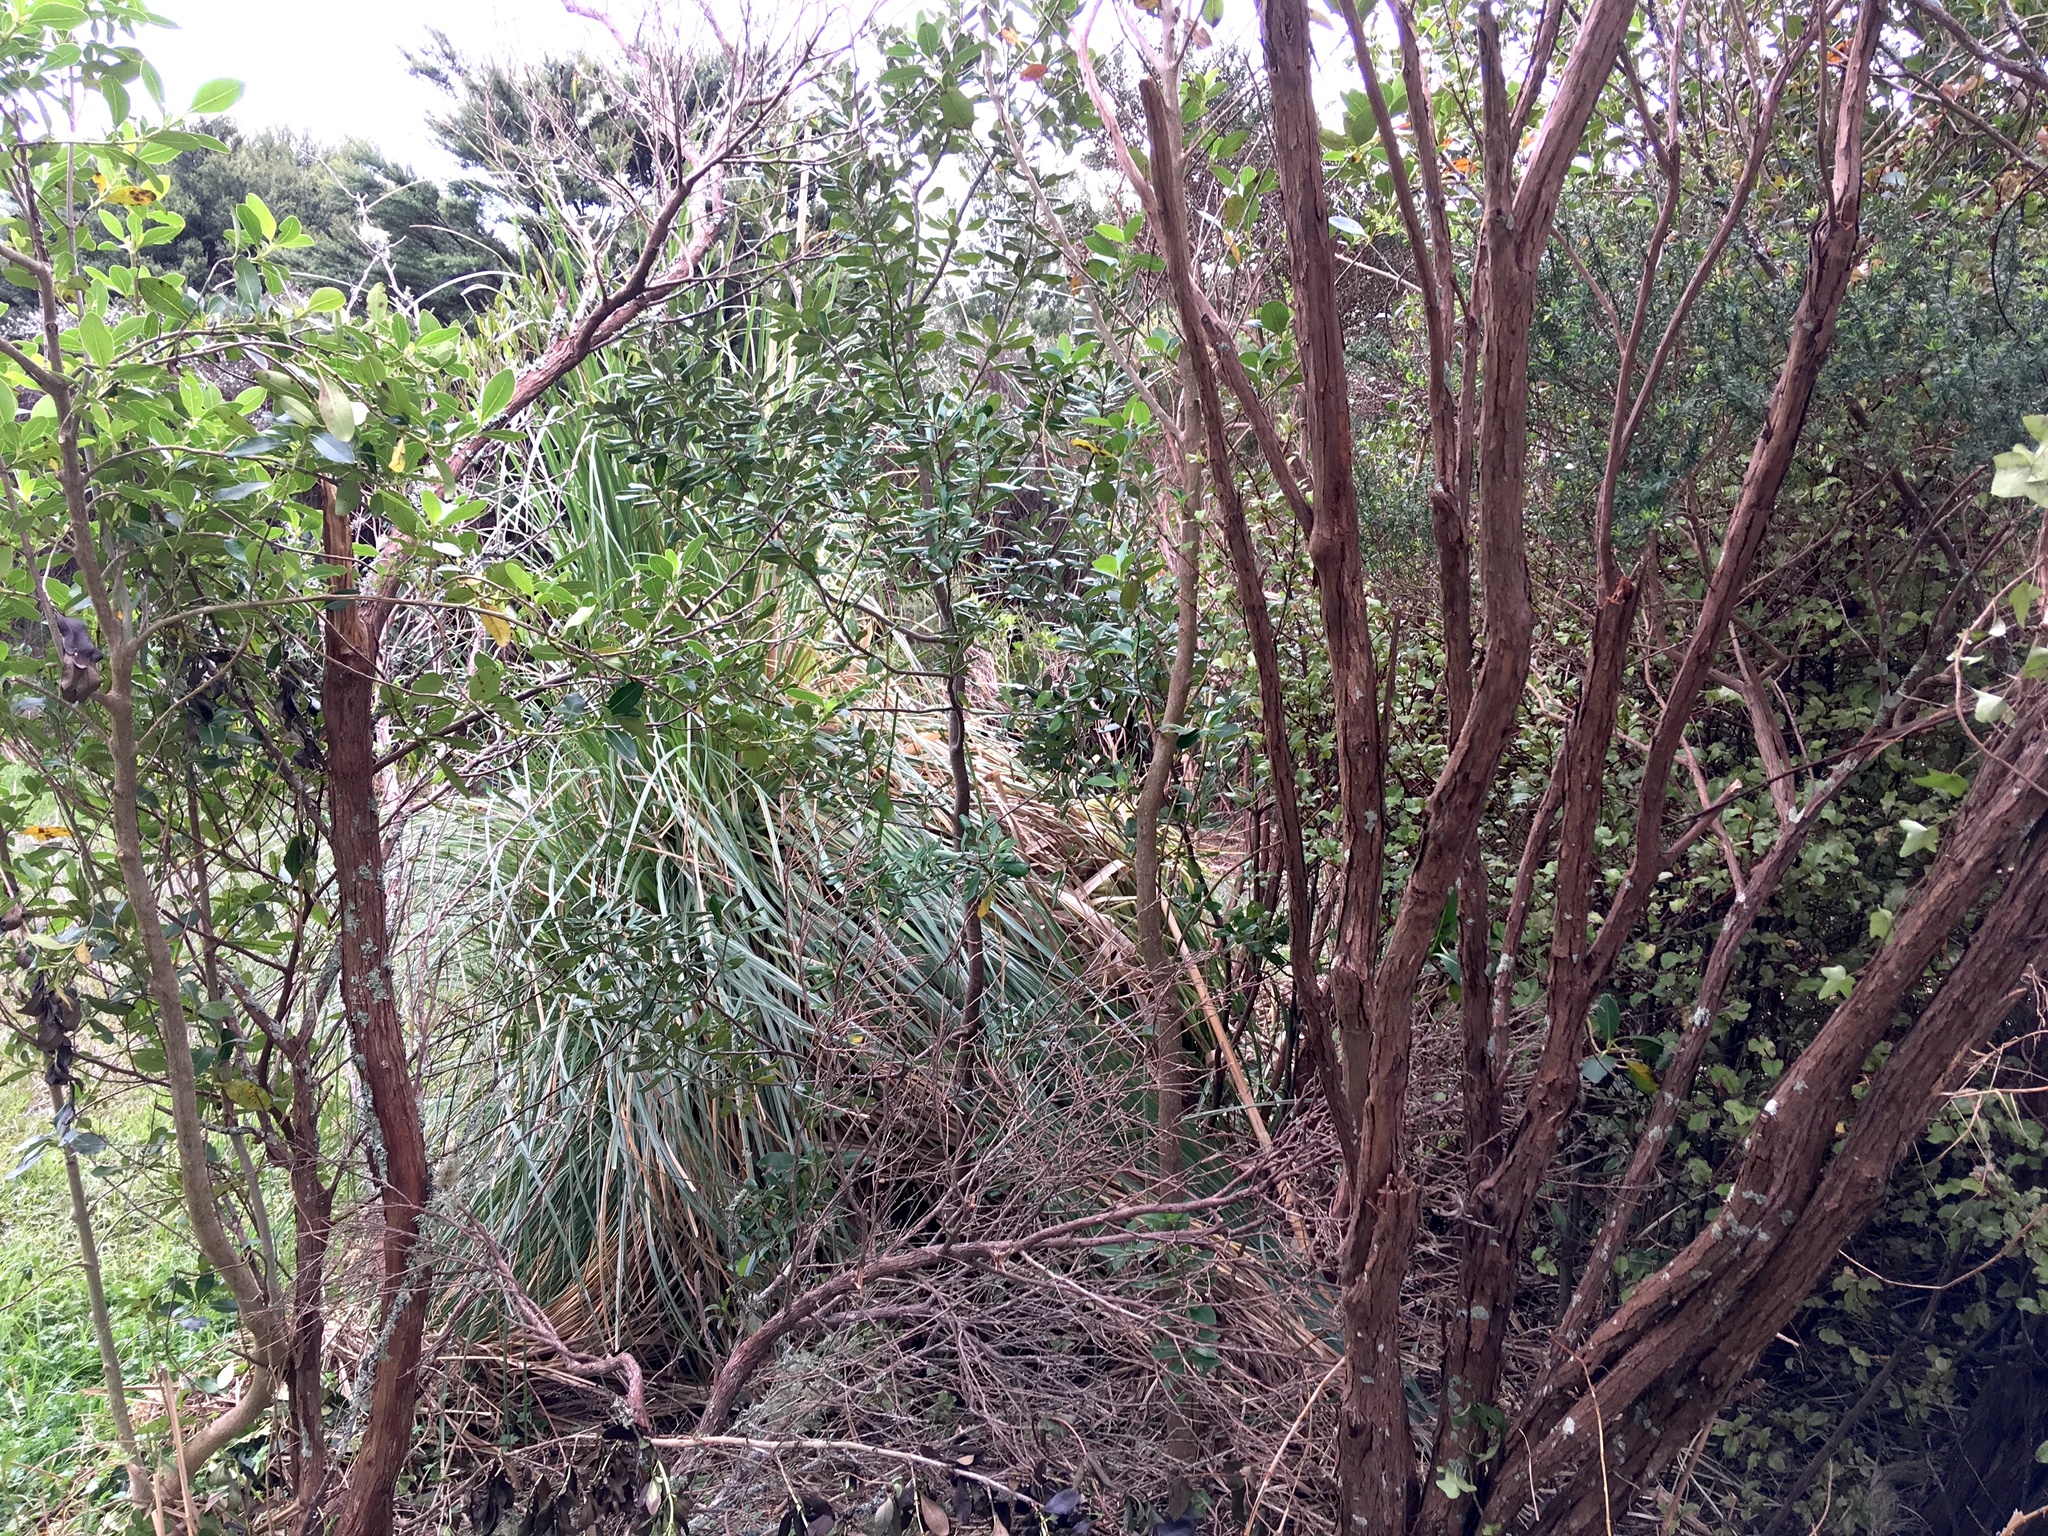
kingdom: Plantae
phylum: Tracheophyta
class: Magnoliopsida
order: Apiales
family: Pittosporaceae
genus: Pittosporum
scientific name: Pittosporum crassifolium
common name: Karo
